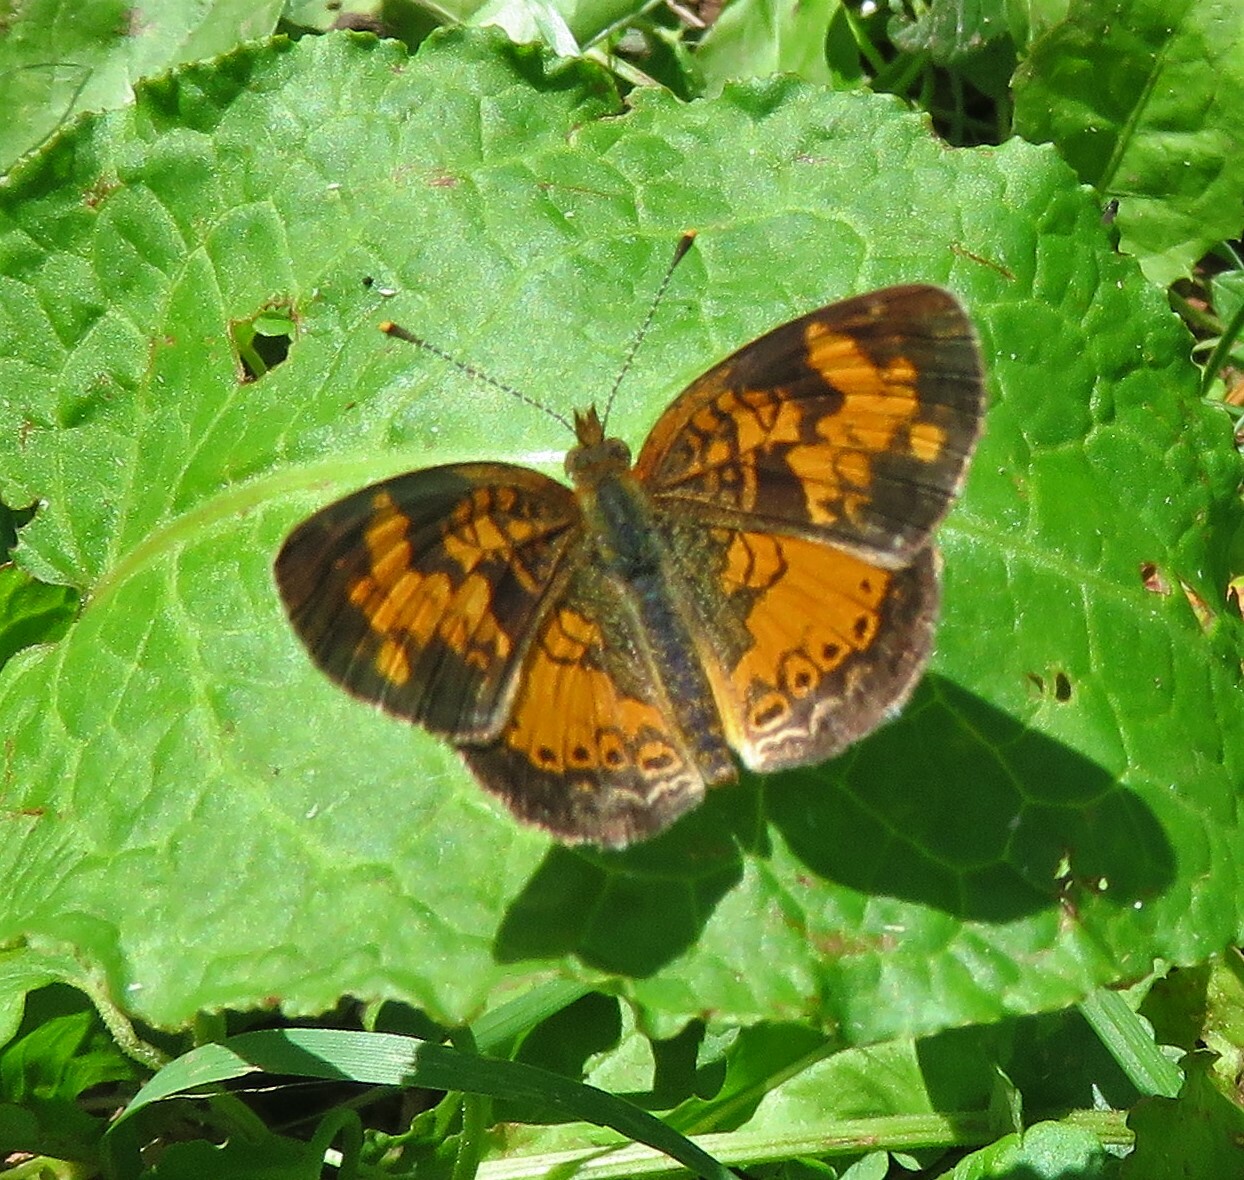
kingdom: Animalia
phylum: Arthropoda
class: Insecta
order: Lepidoptera
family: Nymphalidae
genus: Phyciodes
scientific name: Phyciodes tharos
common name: Pearl crescent
